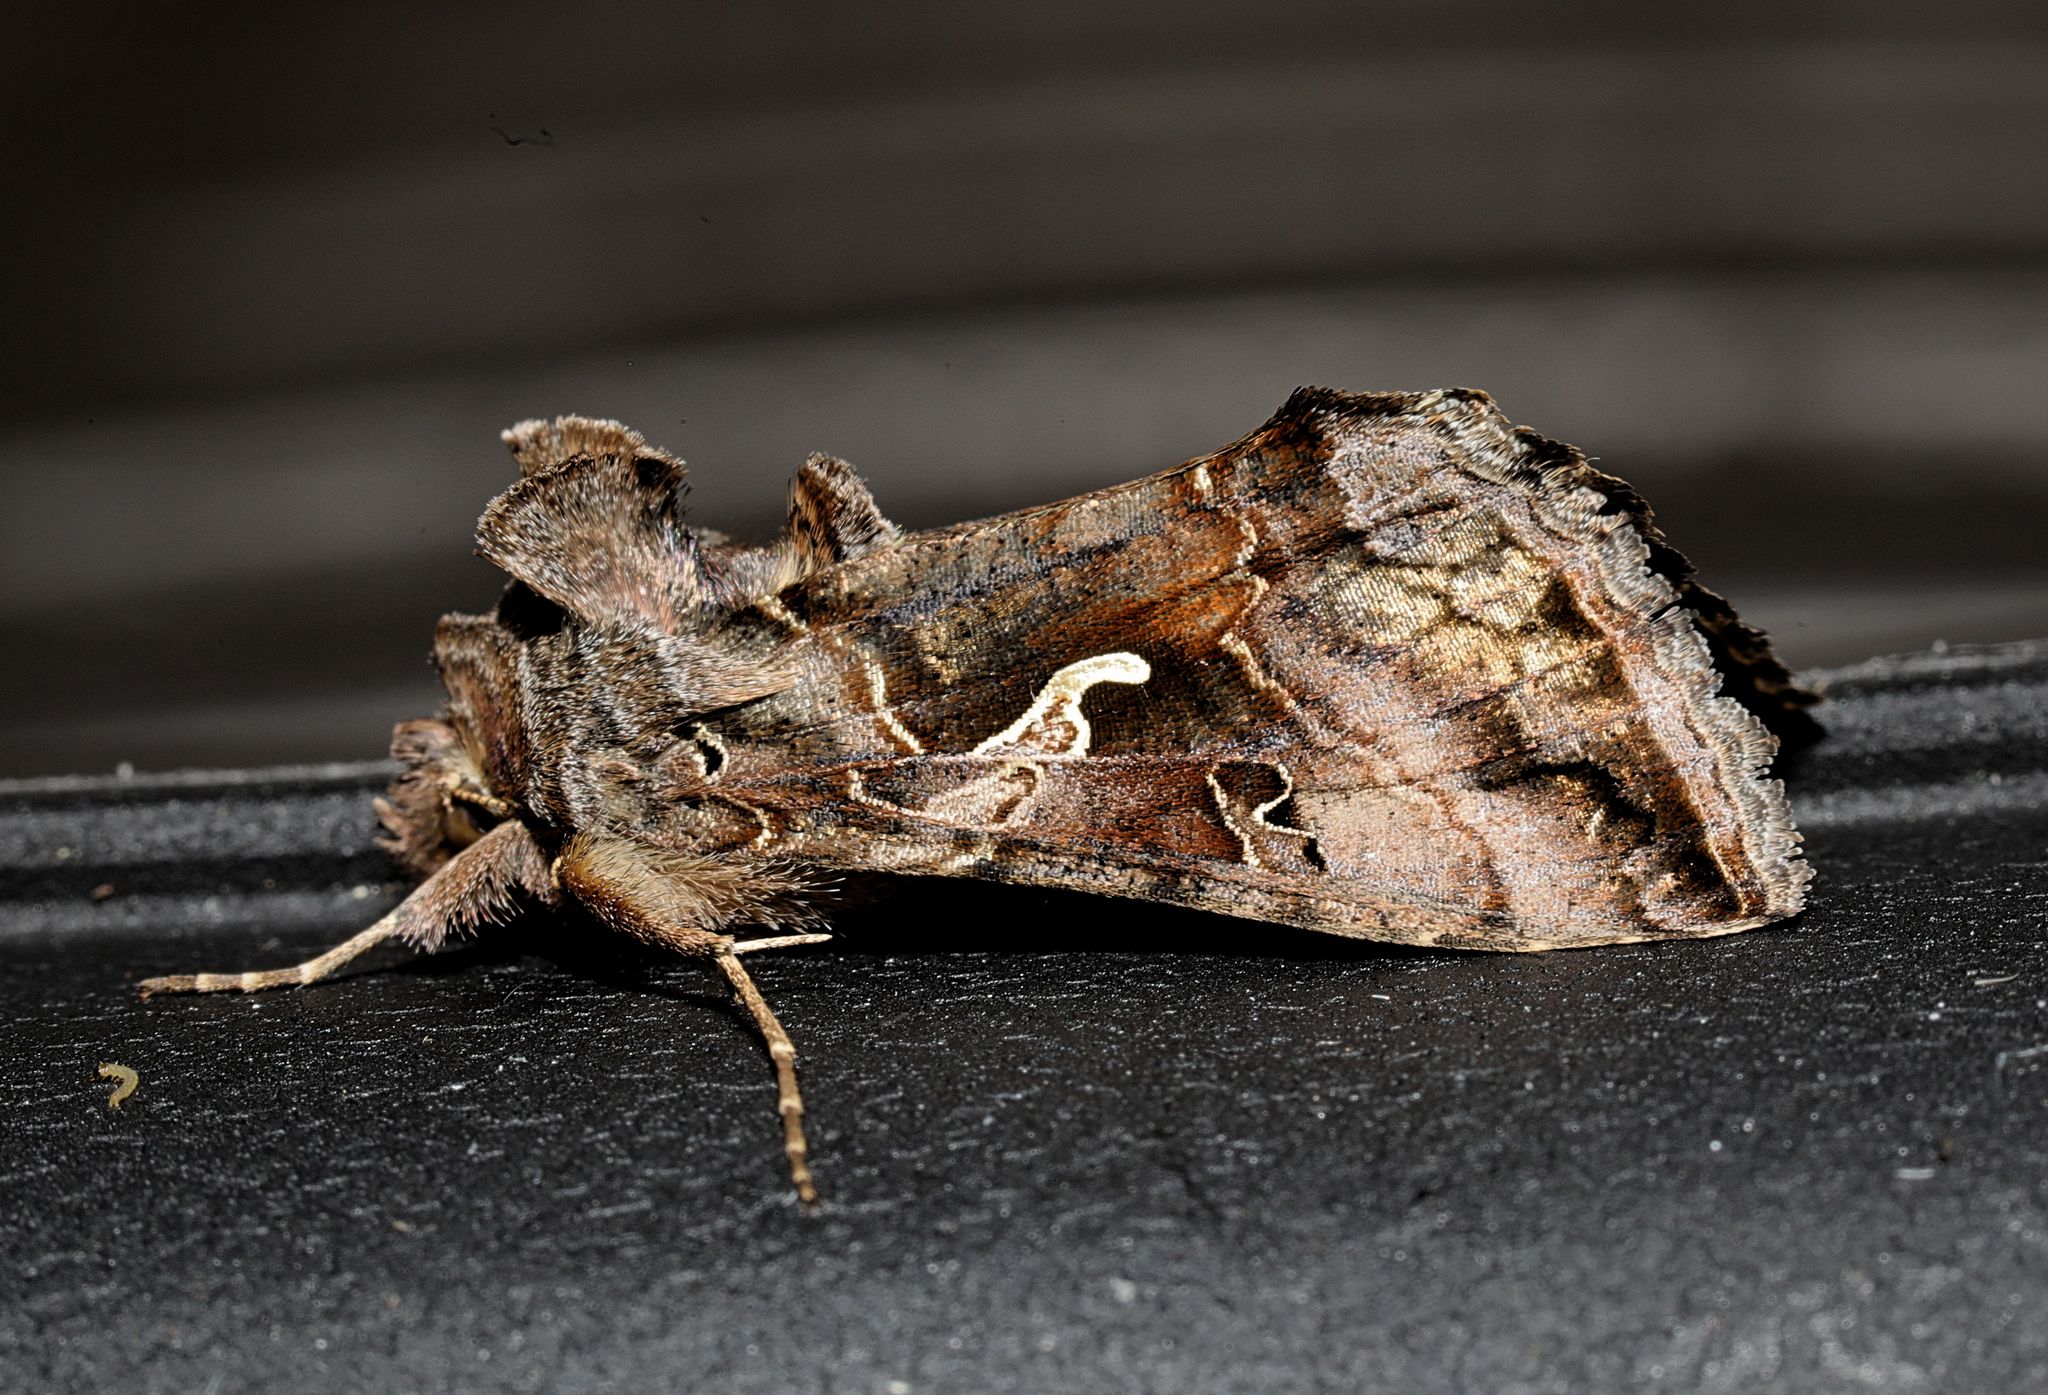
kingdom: Animalia
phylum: Arthropoda
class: Insecta
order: Lepidoptera
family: Noctuidae
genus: Autographa
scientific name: Autographa gamma
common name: Silver y
